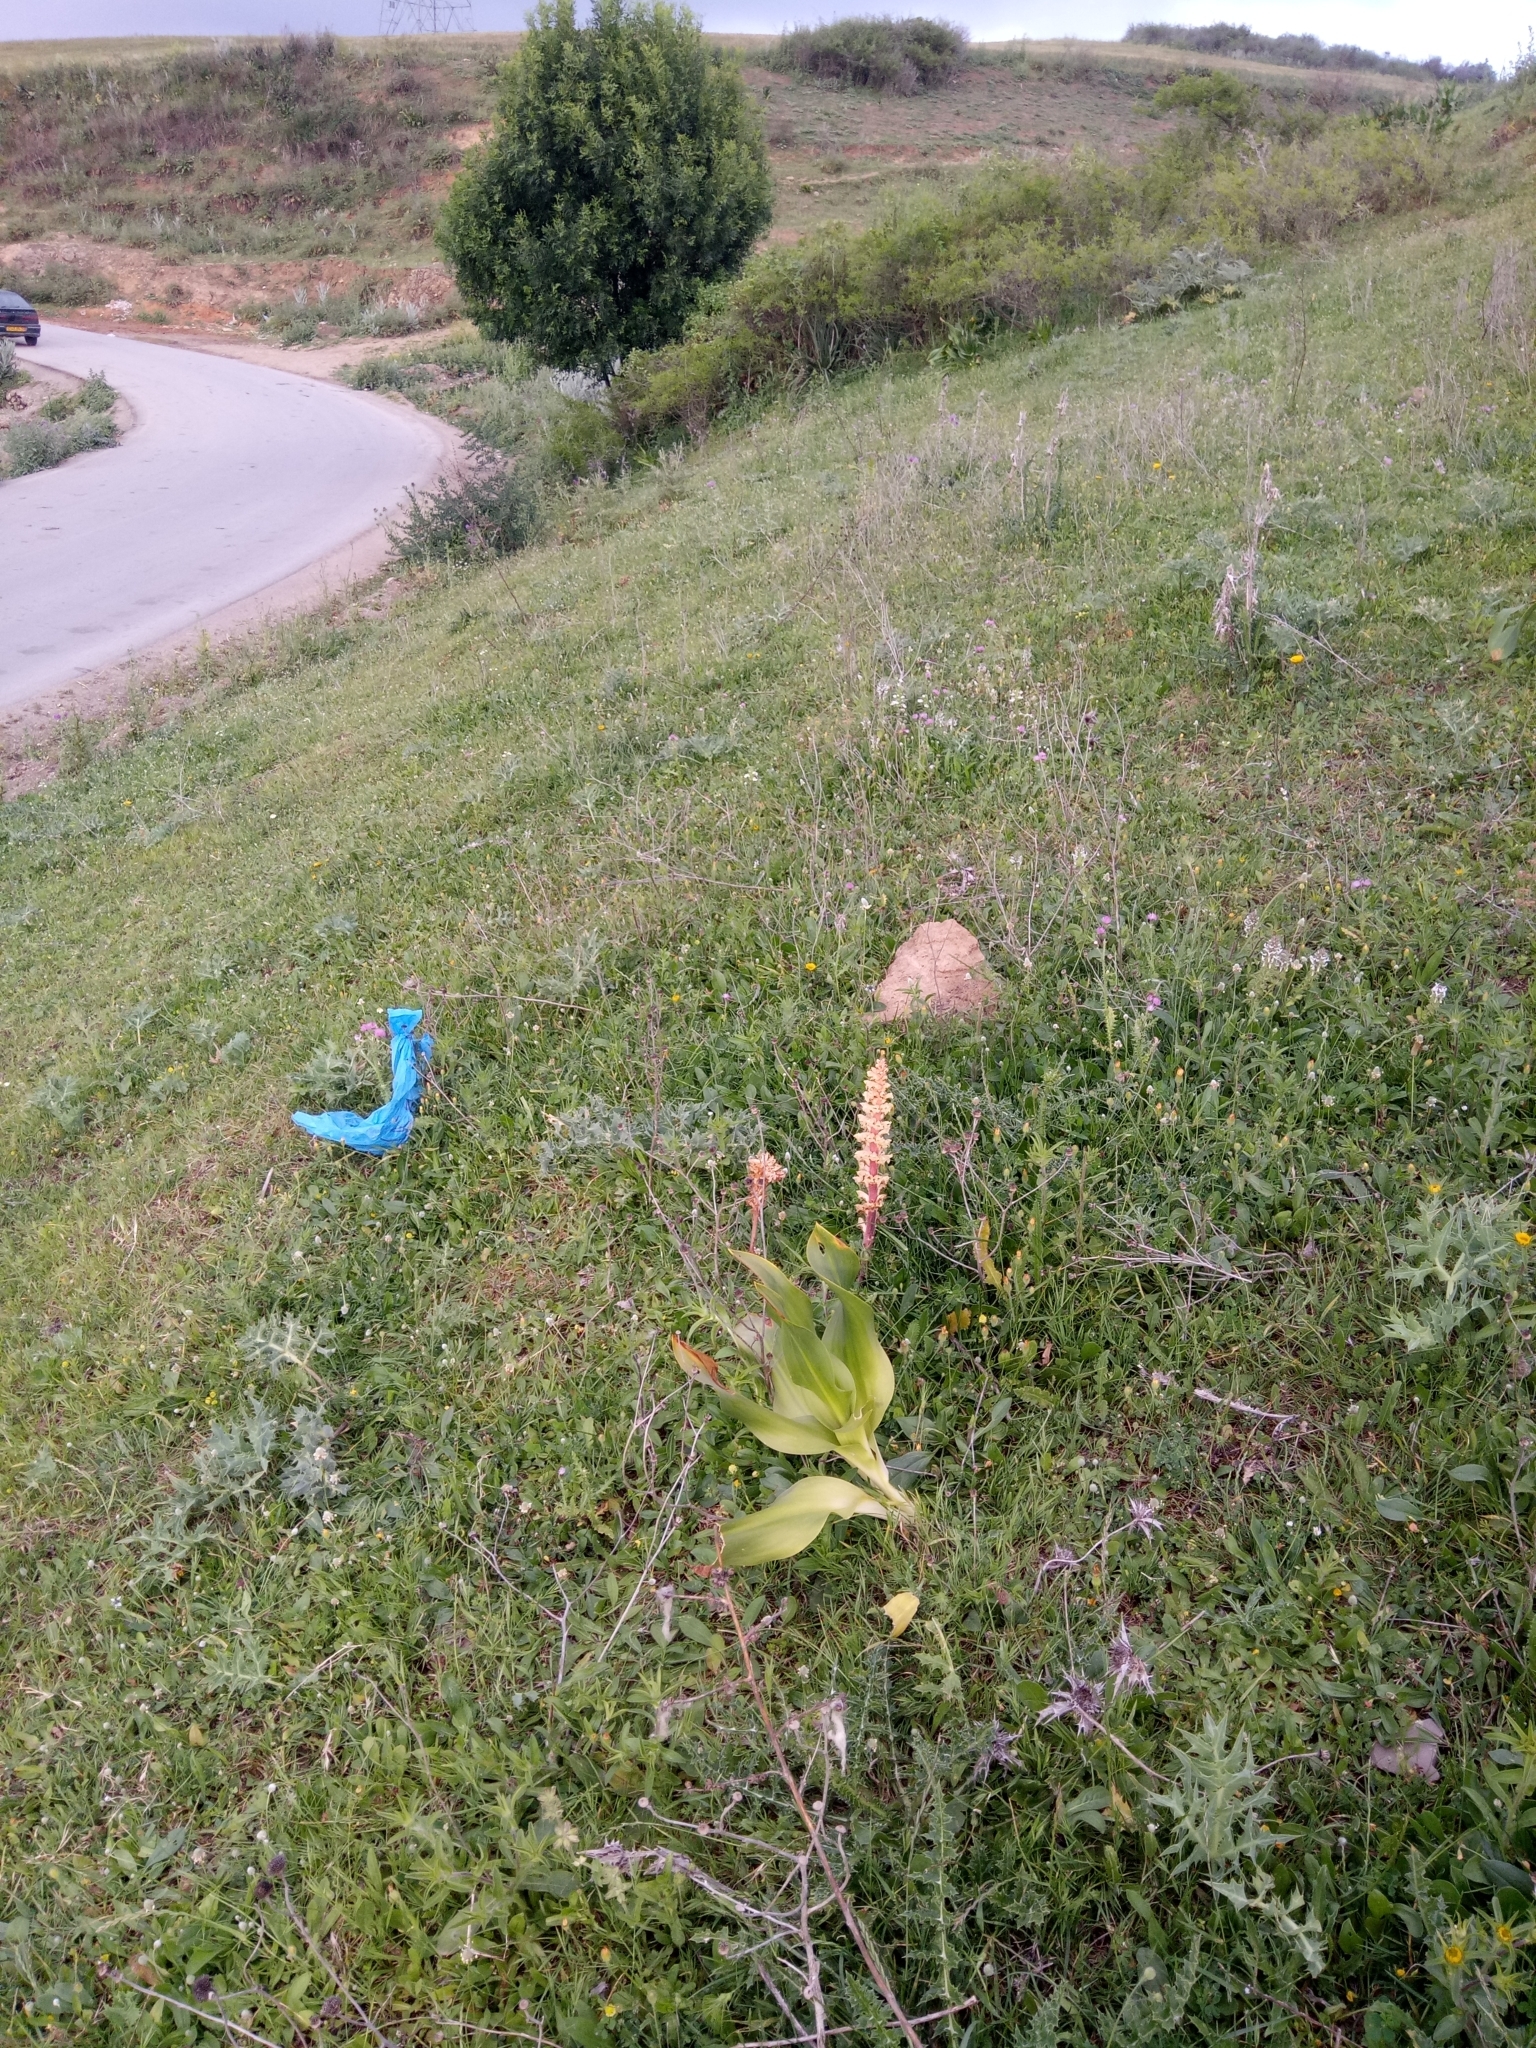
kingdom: Plantae
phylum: Tracheophyta
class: Magnoliopsida
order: Lamiales
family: Orobanchaceae
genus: Orobanche
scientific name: Orobanche amethystea
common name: Amethyst broomrape
